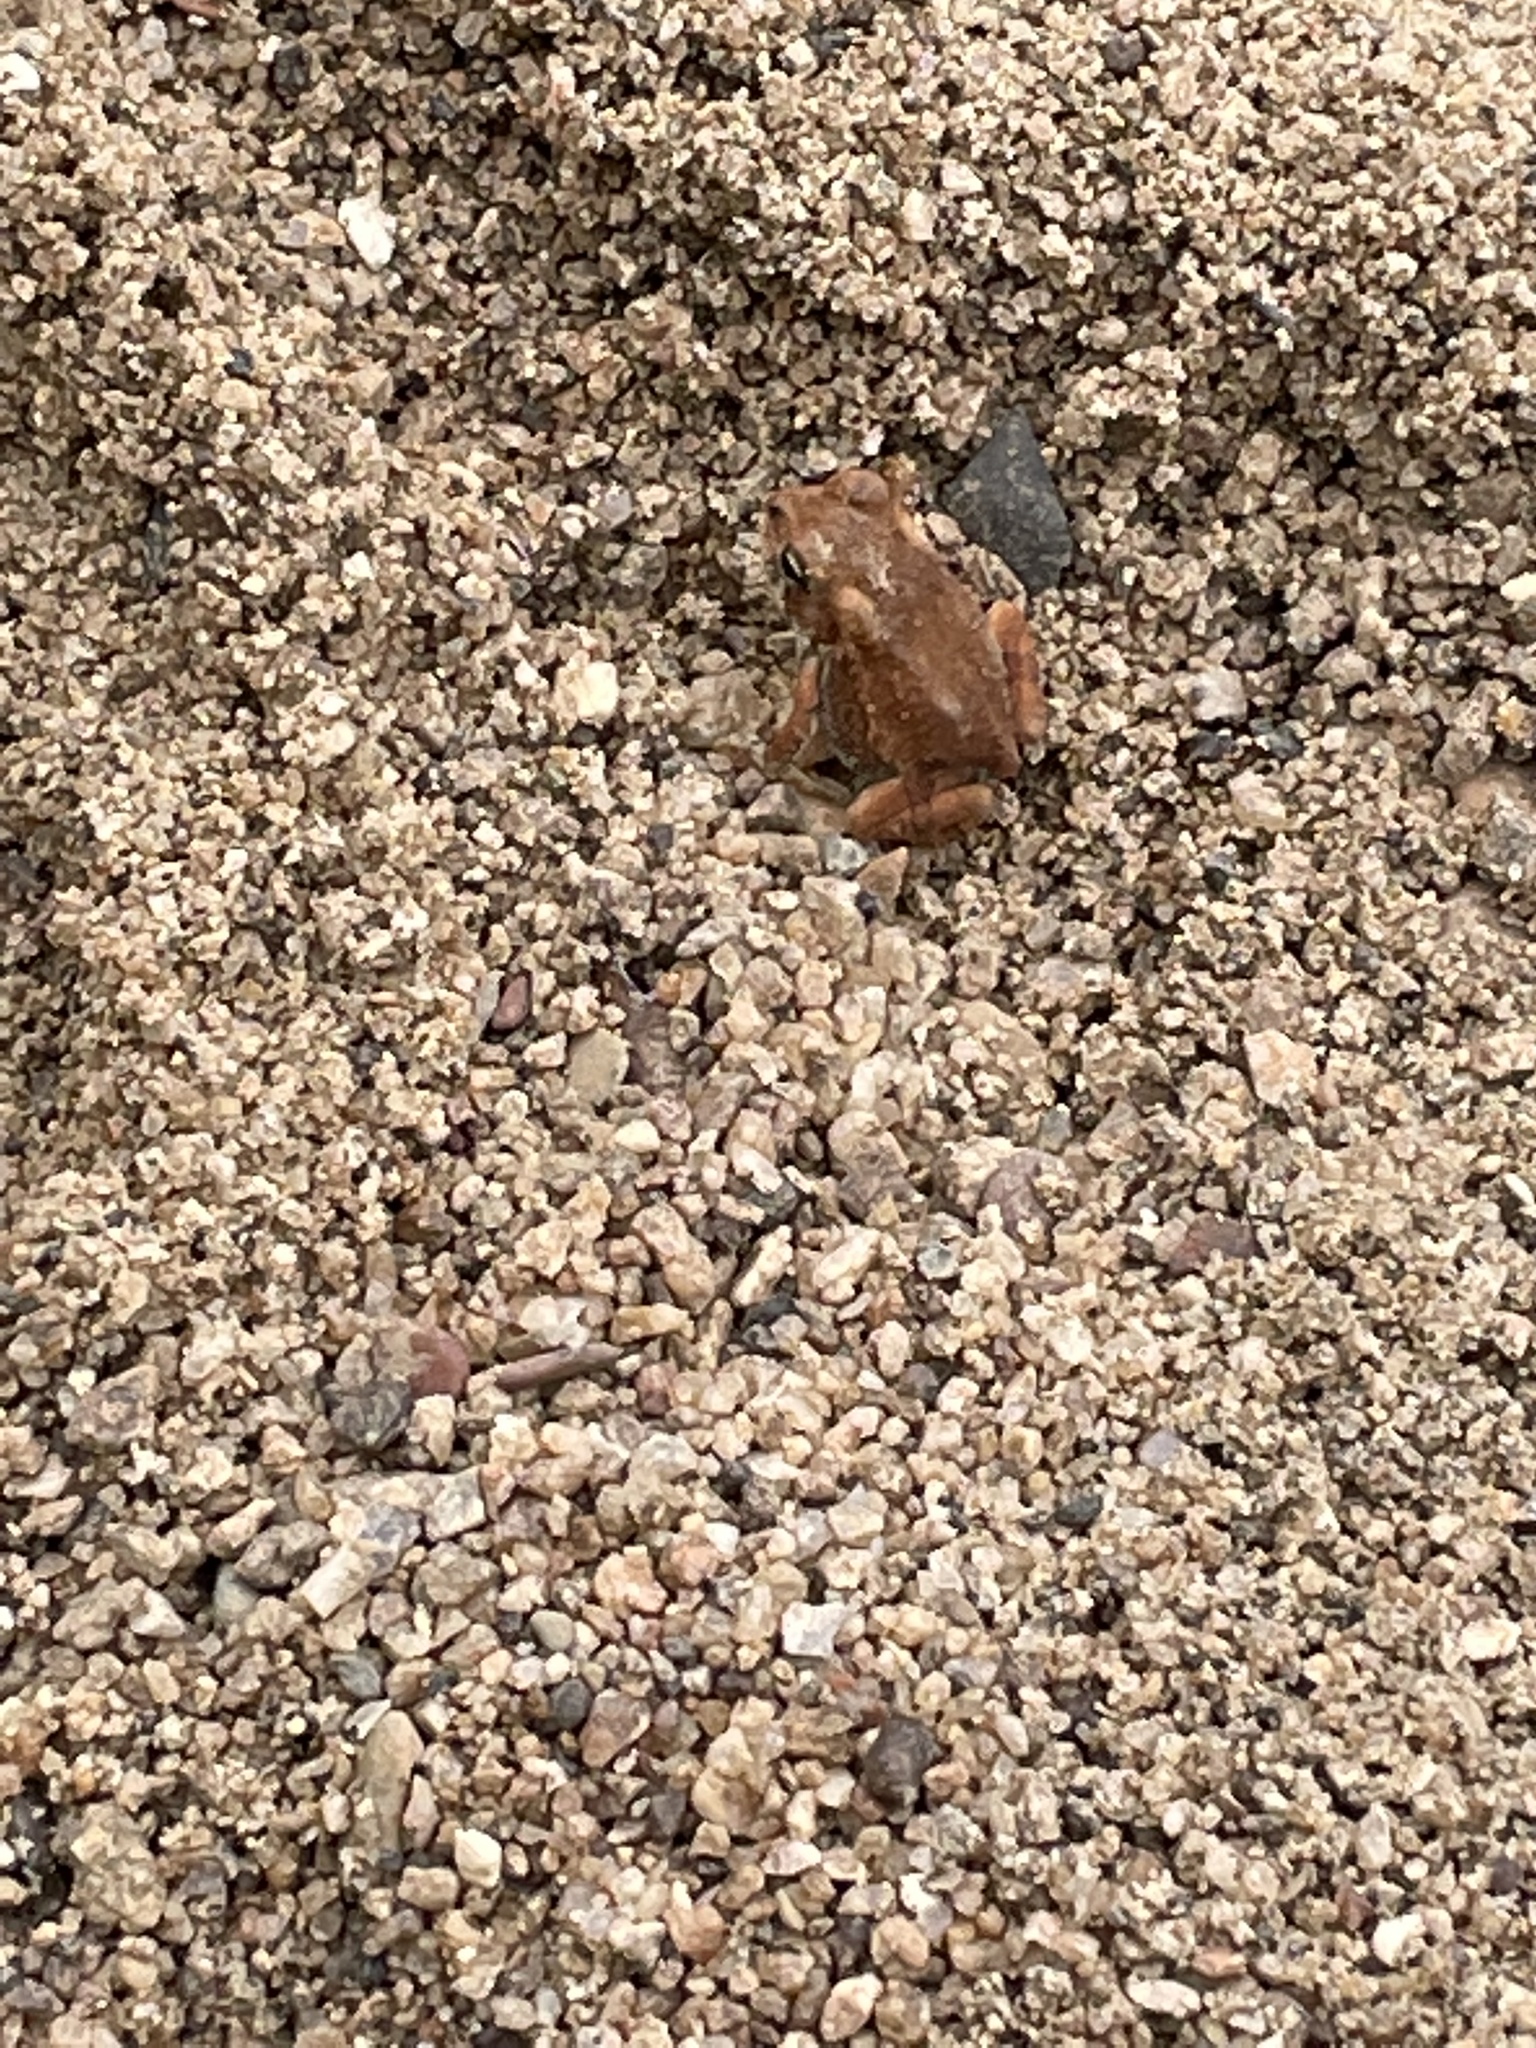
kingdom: Animalia
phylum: Chordata
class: Amphibia
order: Anura
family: Bufonidae
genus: Anaxyrus
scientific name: Anaxyrus fowleri
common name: Fowler's toad
